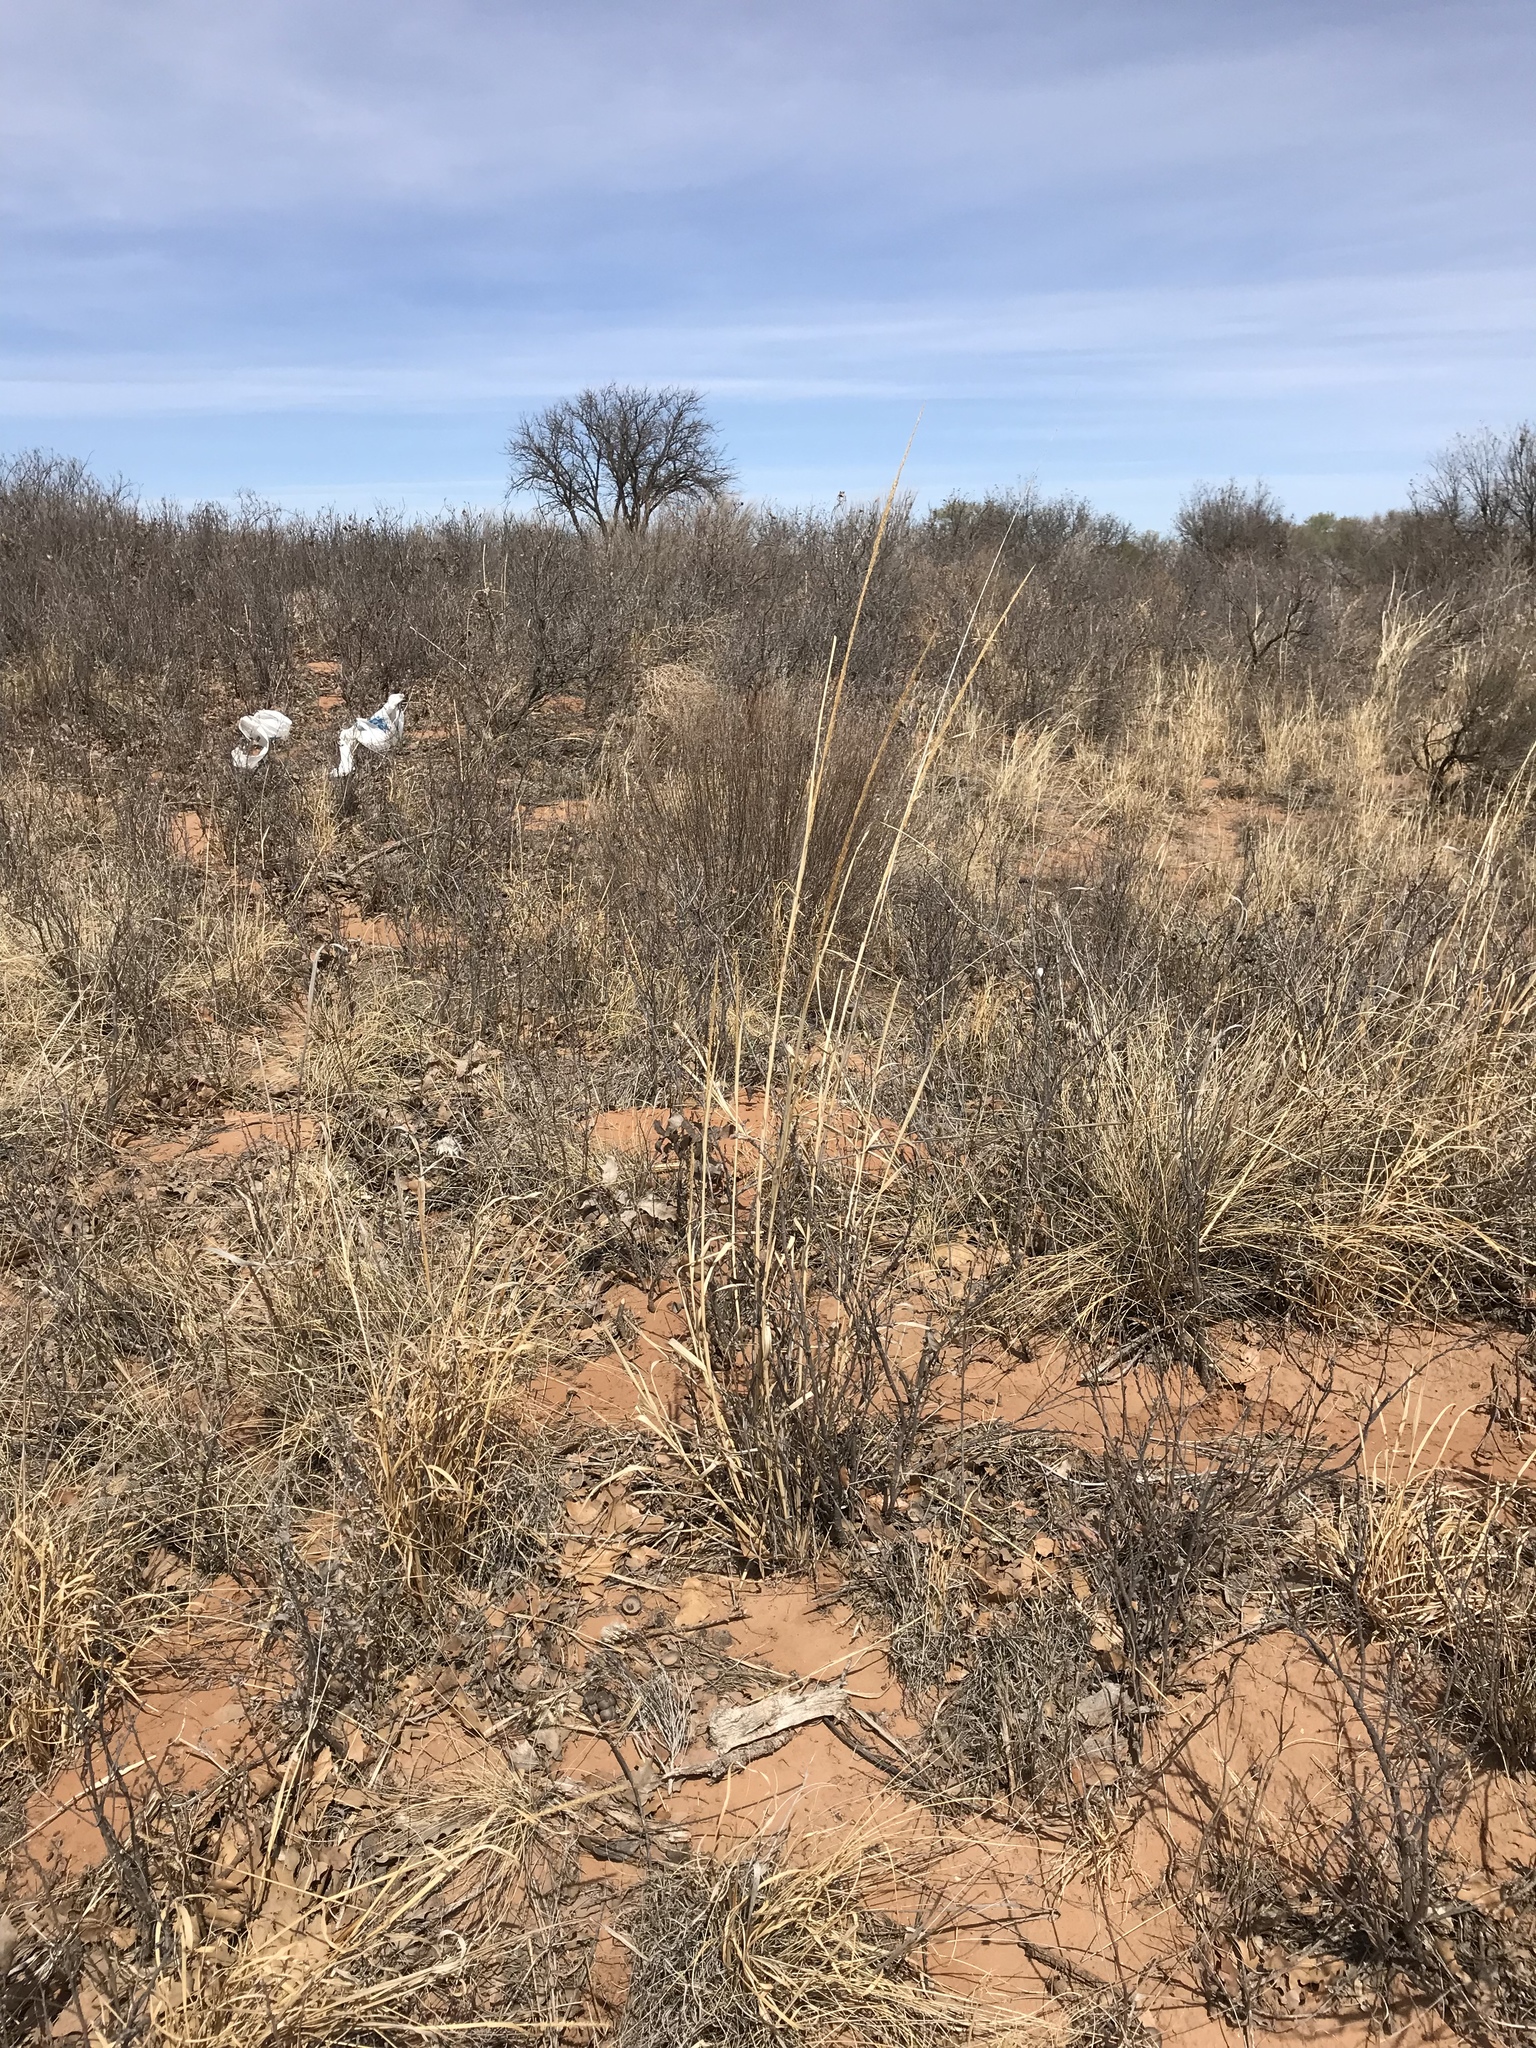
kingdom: Plantae
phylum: Tracheophyta
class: Liliopsida
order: Poales
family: Poaceae
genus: Sporobolus
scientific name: Sporobolus giganteus
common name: Giant dropseed
